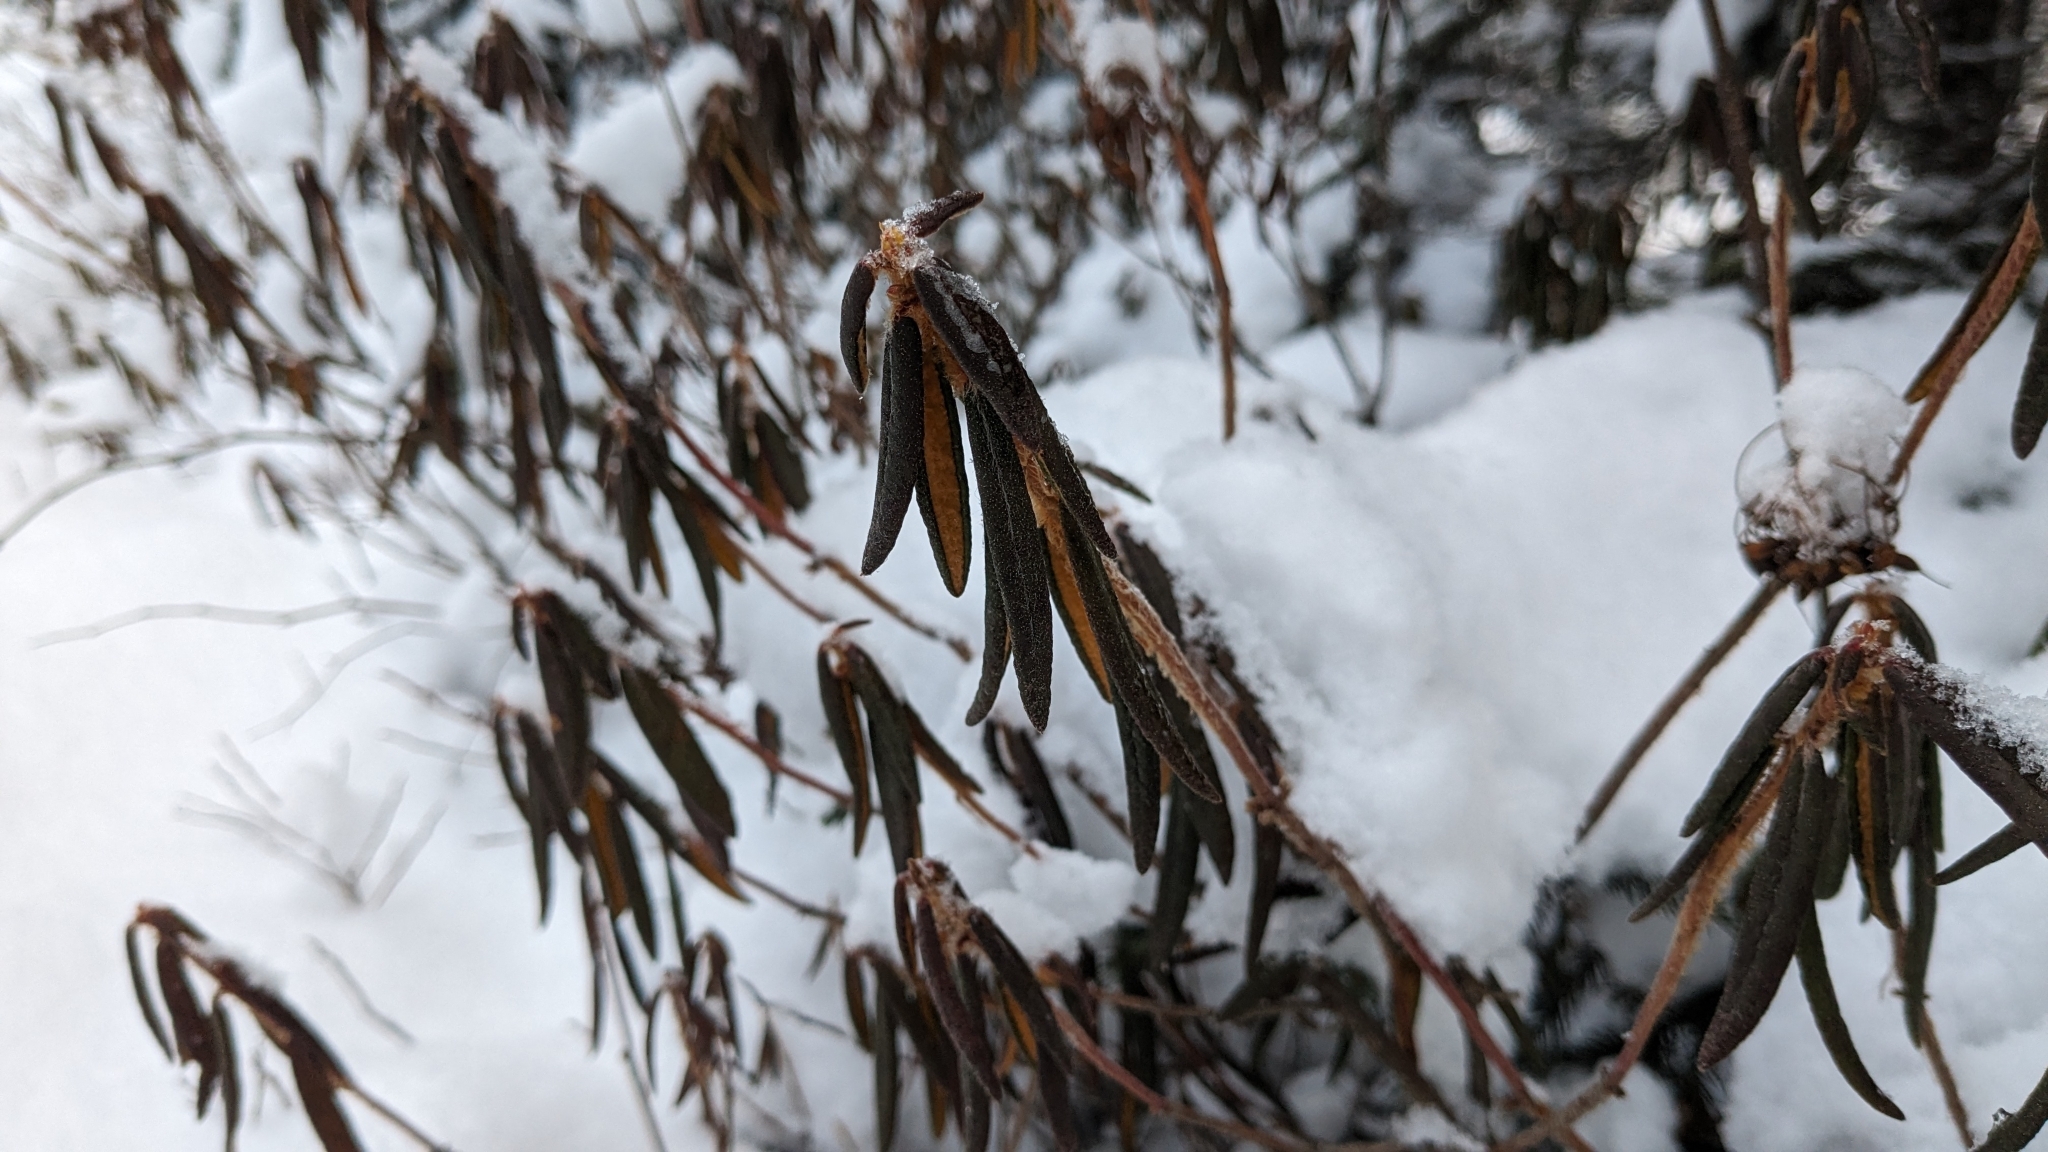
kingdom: Plantae
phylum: Tracheophyta
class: Magnoliopsida
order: Ericales
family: Ericaceae
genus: Rhododendron
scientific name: Rhododendron groenlandicum
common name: Bog labrador tea
